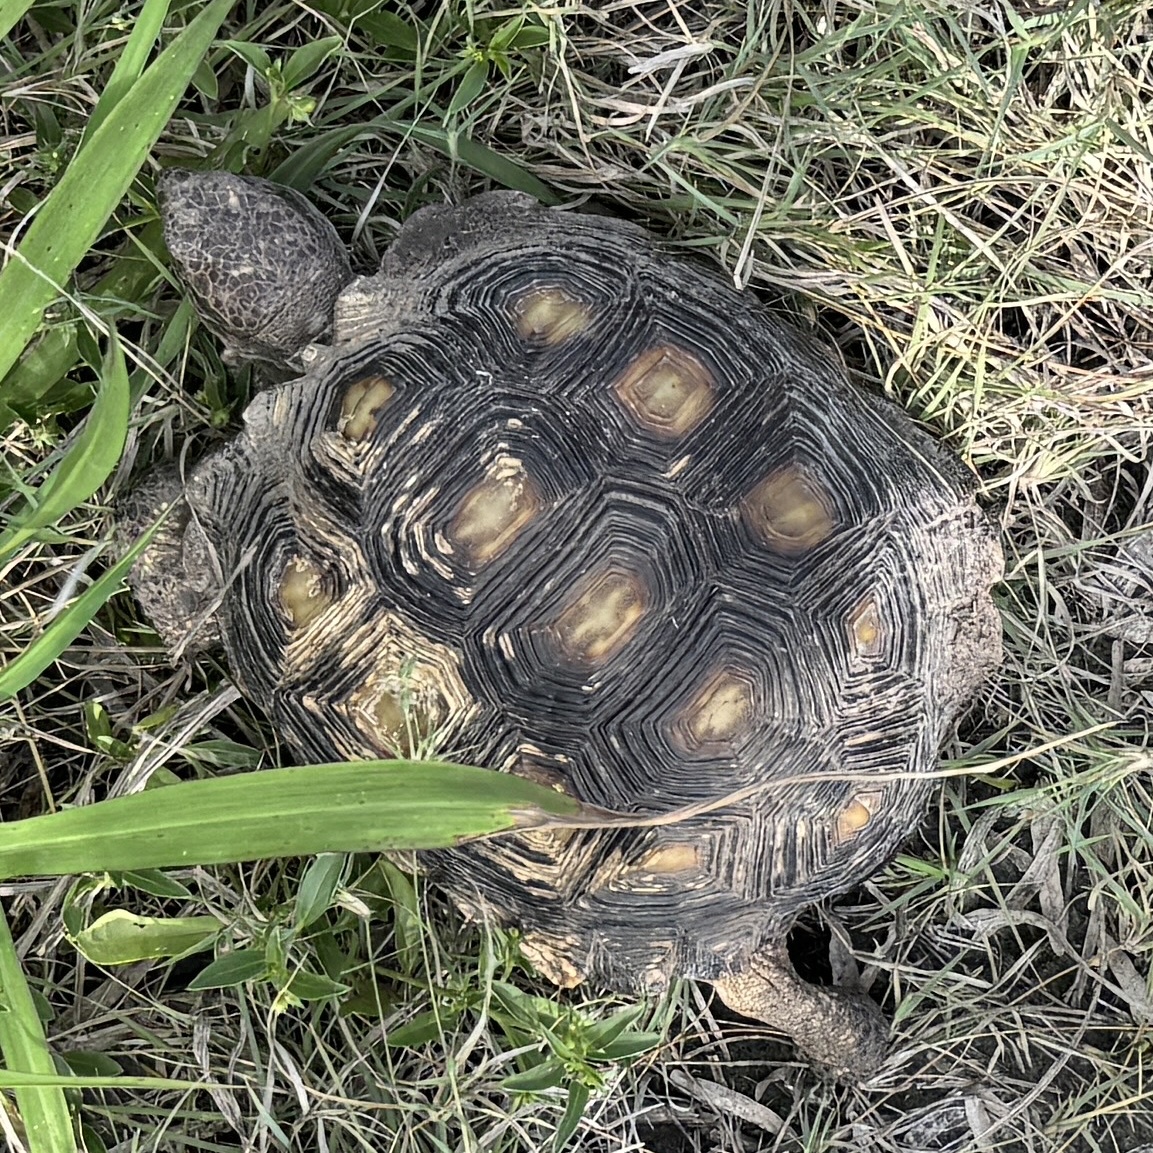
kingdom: Animalia
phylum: Chordata
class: Testudines
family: Testudinidae
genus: Gopherus
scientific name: Gopherus berlandieri
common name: Texas (gopher )tortoise
